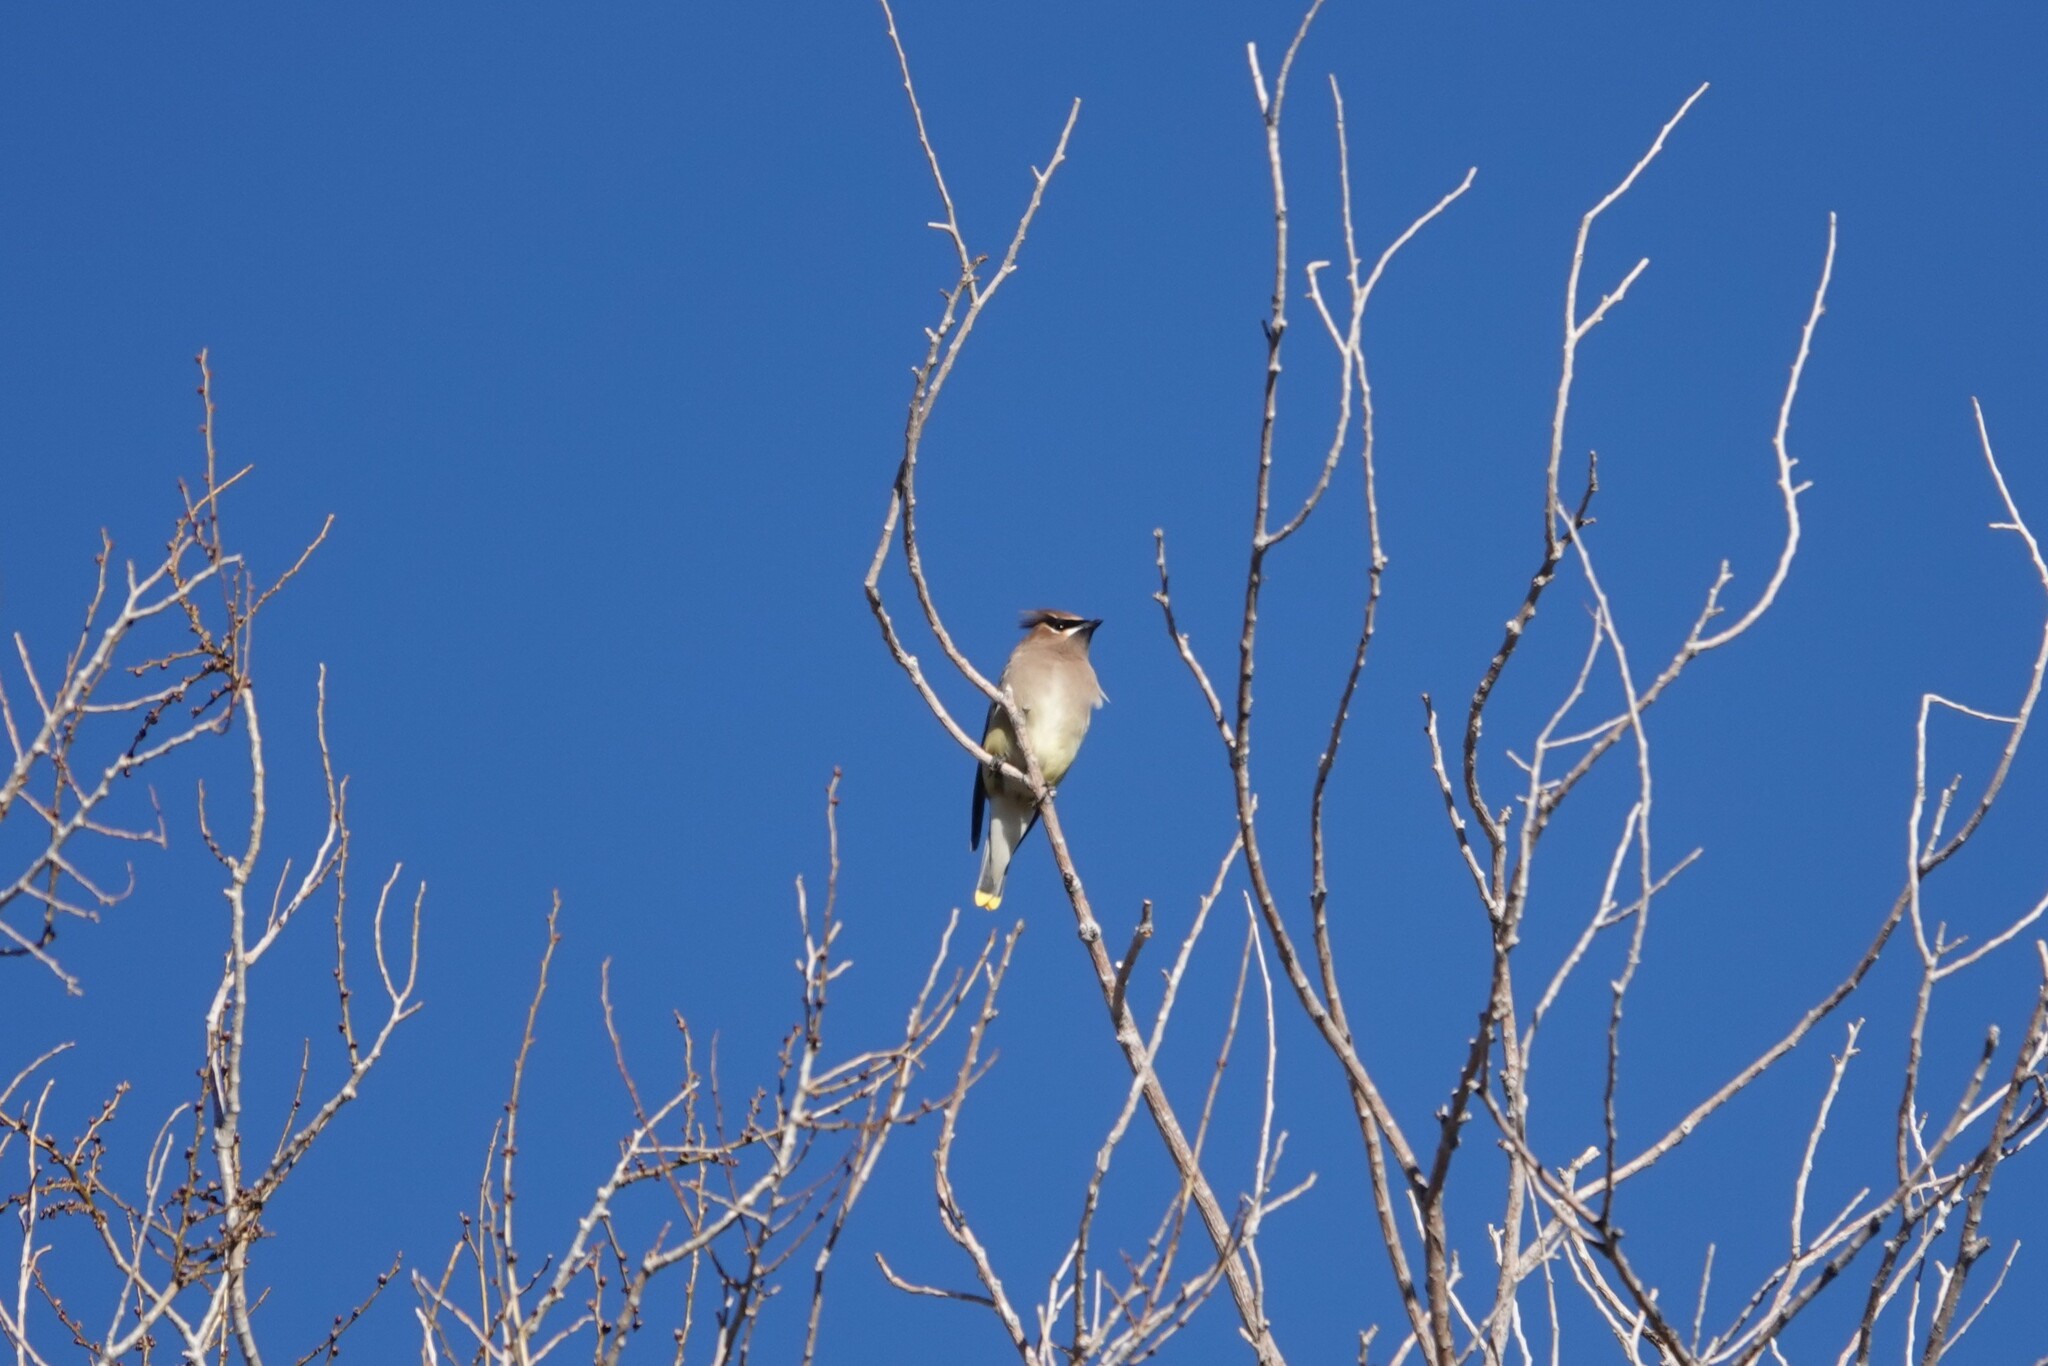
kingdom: Animalia
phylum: Chordata
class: Aves
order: Passeriformes
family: Bombycillidae
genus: Bombycilla
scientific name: Bombycilla cedrorum
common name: Cedar waxwing
